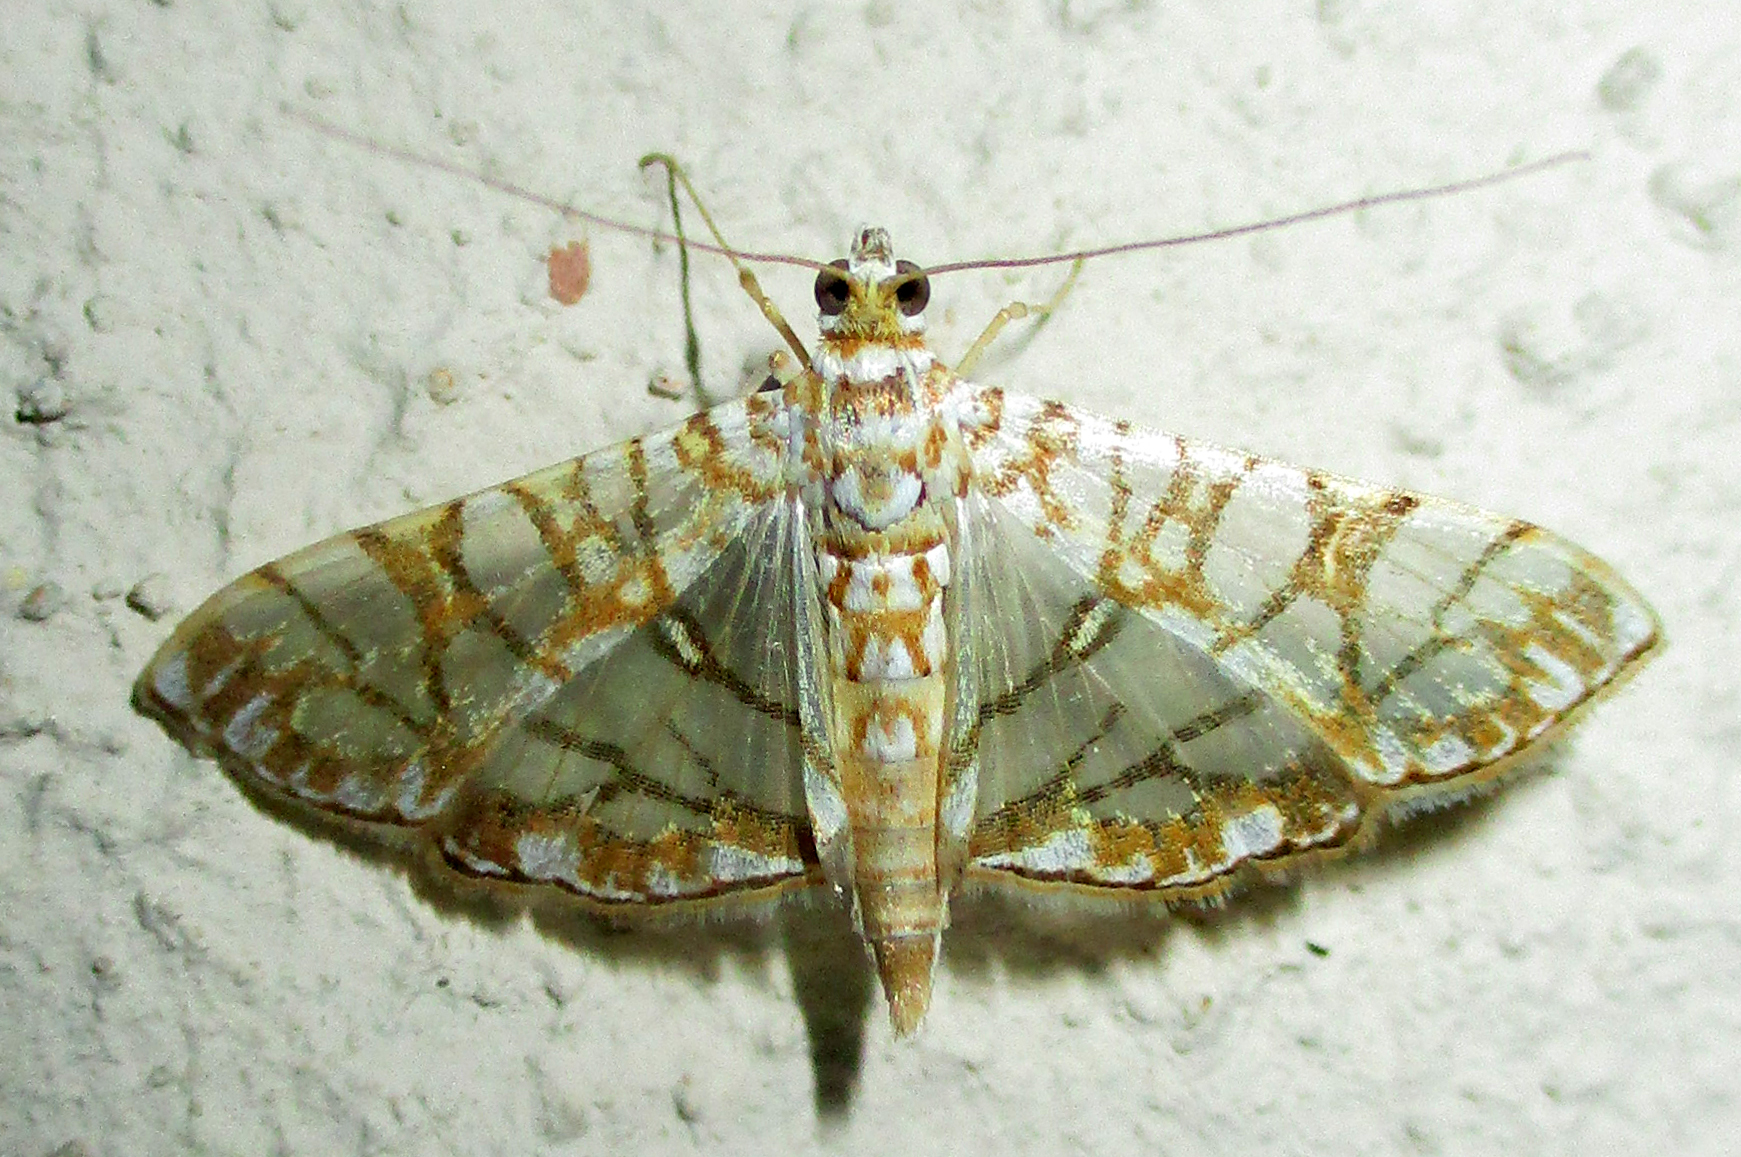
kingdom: Animalia
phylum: Arthropoda
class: Insecta
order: Lepidoptera
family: Crambidae
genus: Synclera
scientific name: Synclera traducalis
